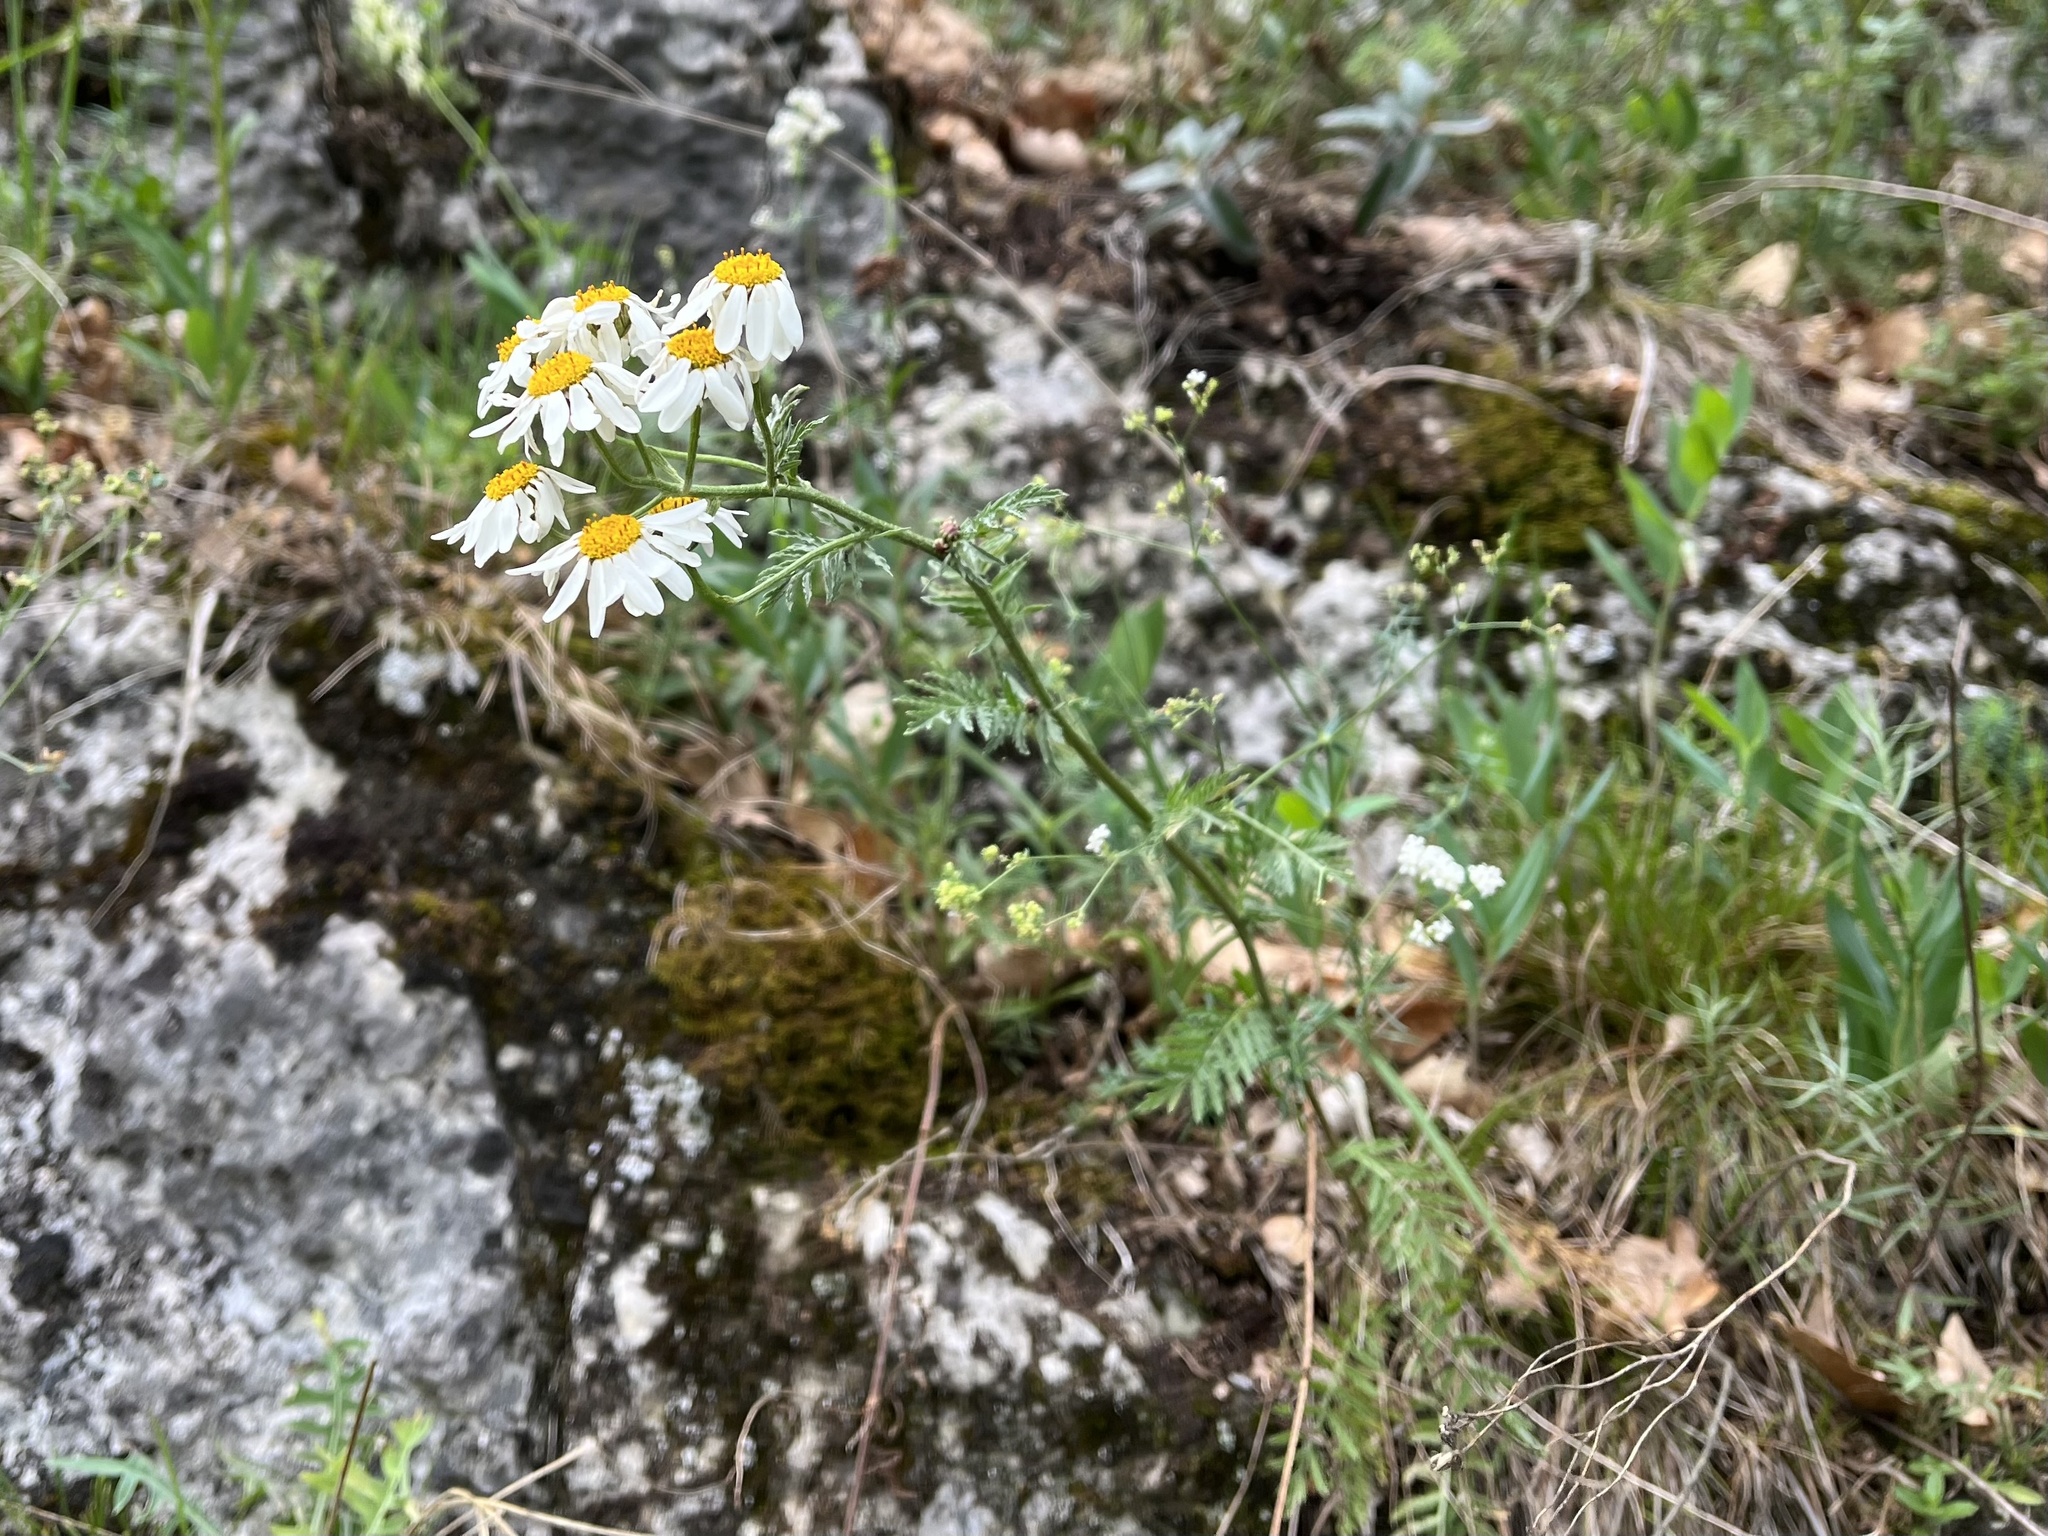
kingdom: Plantae
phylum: Tracheophyta
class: Magnoliopsida
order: Asterales
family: Asteraceae
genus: Tanacetum
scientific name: Tanacetum corymbosum
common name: Scentless feverfew
